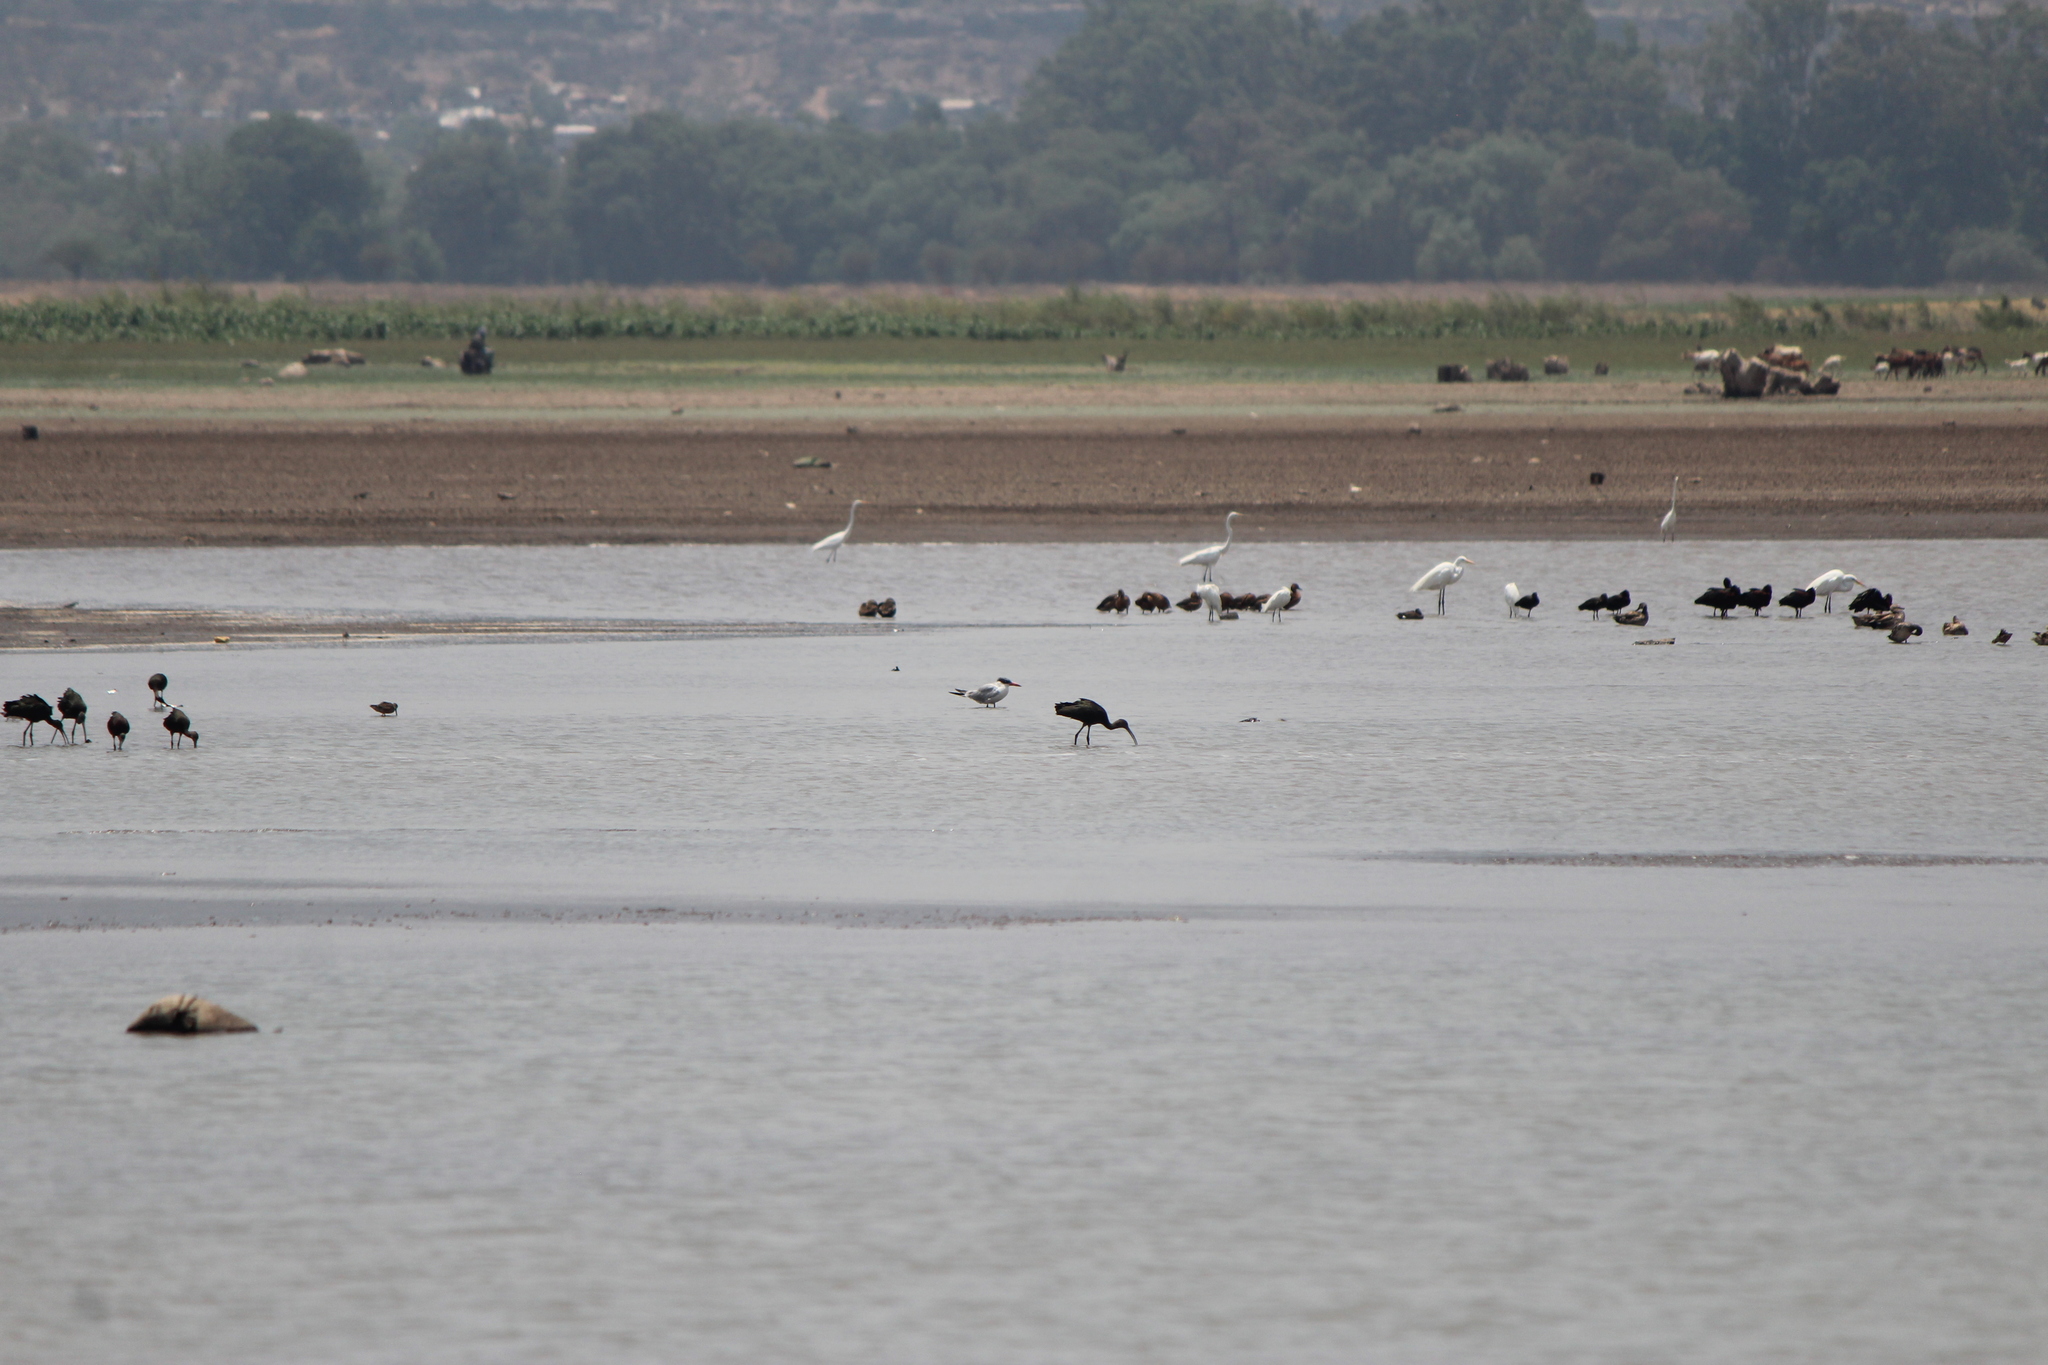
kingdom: Animalia
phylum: Chordata
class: Aves
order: Charadriiformes
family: Laridae
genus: Hydroprogne
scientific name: Hydroprogne caspia
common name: Caspian tern
